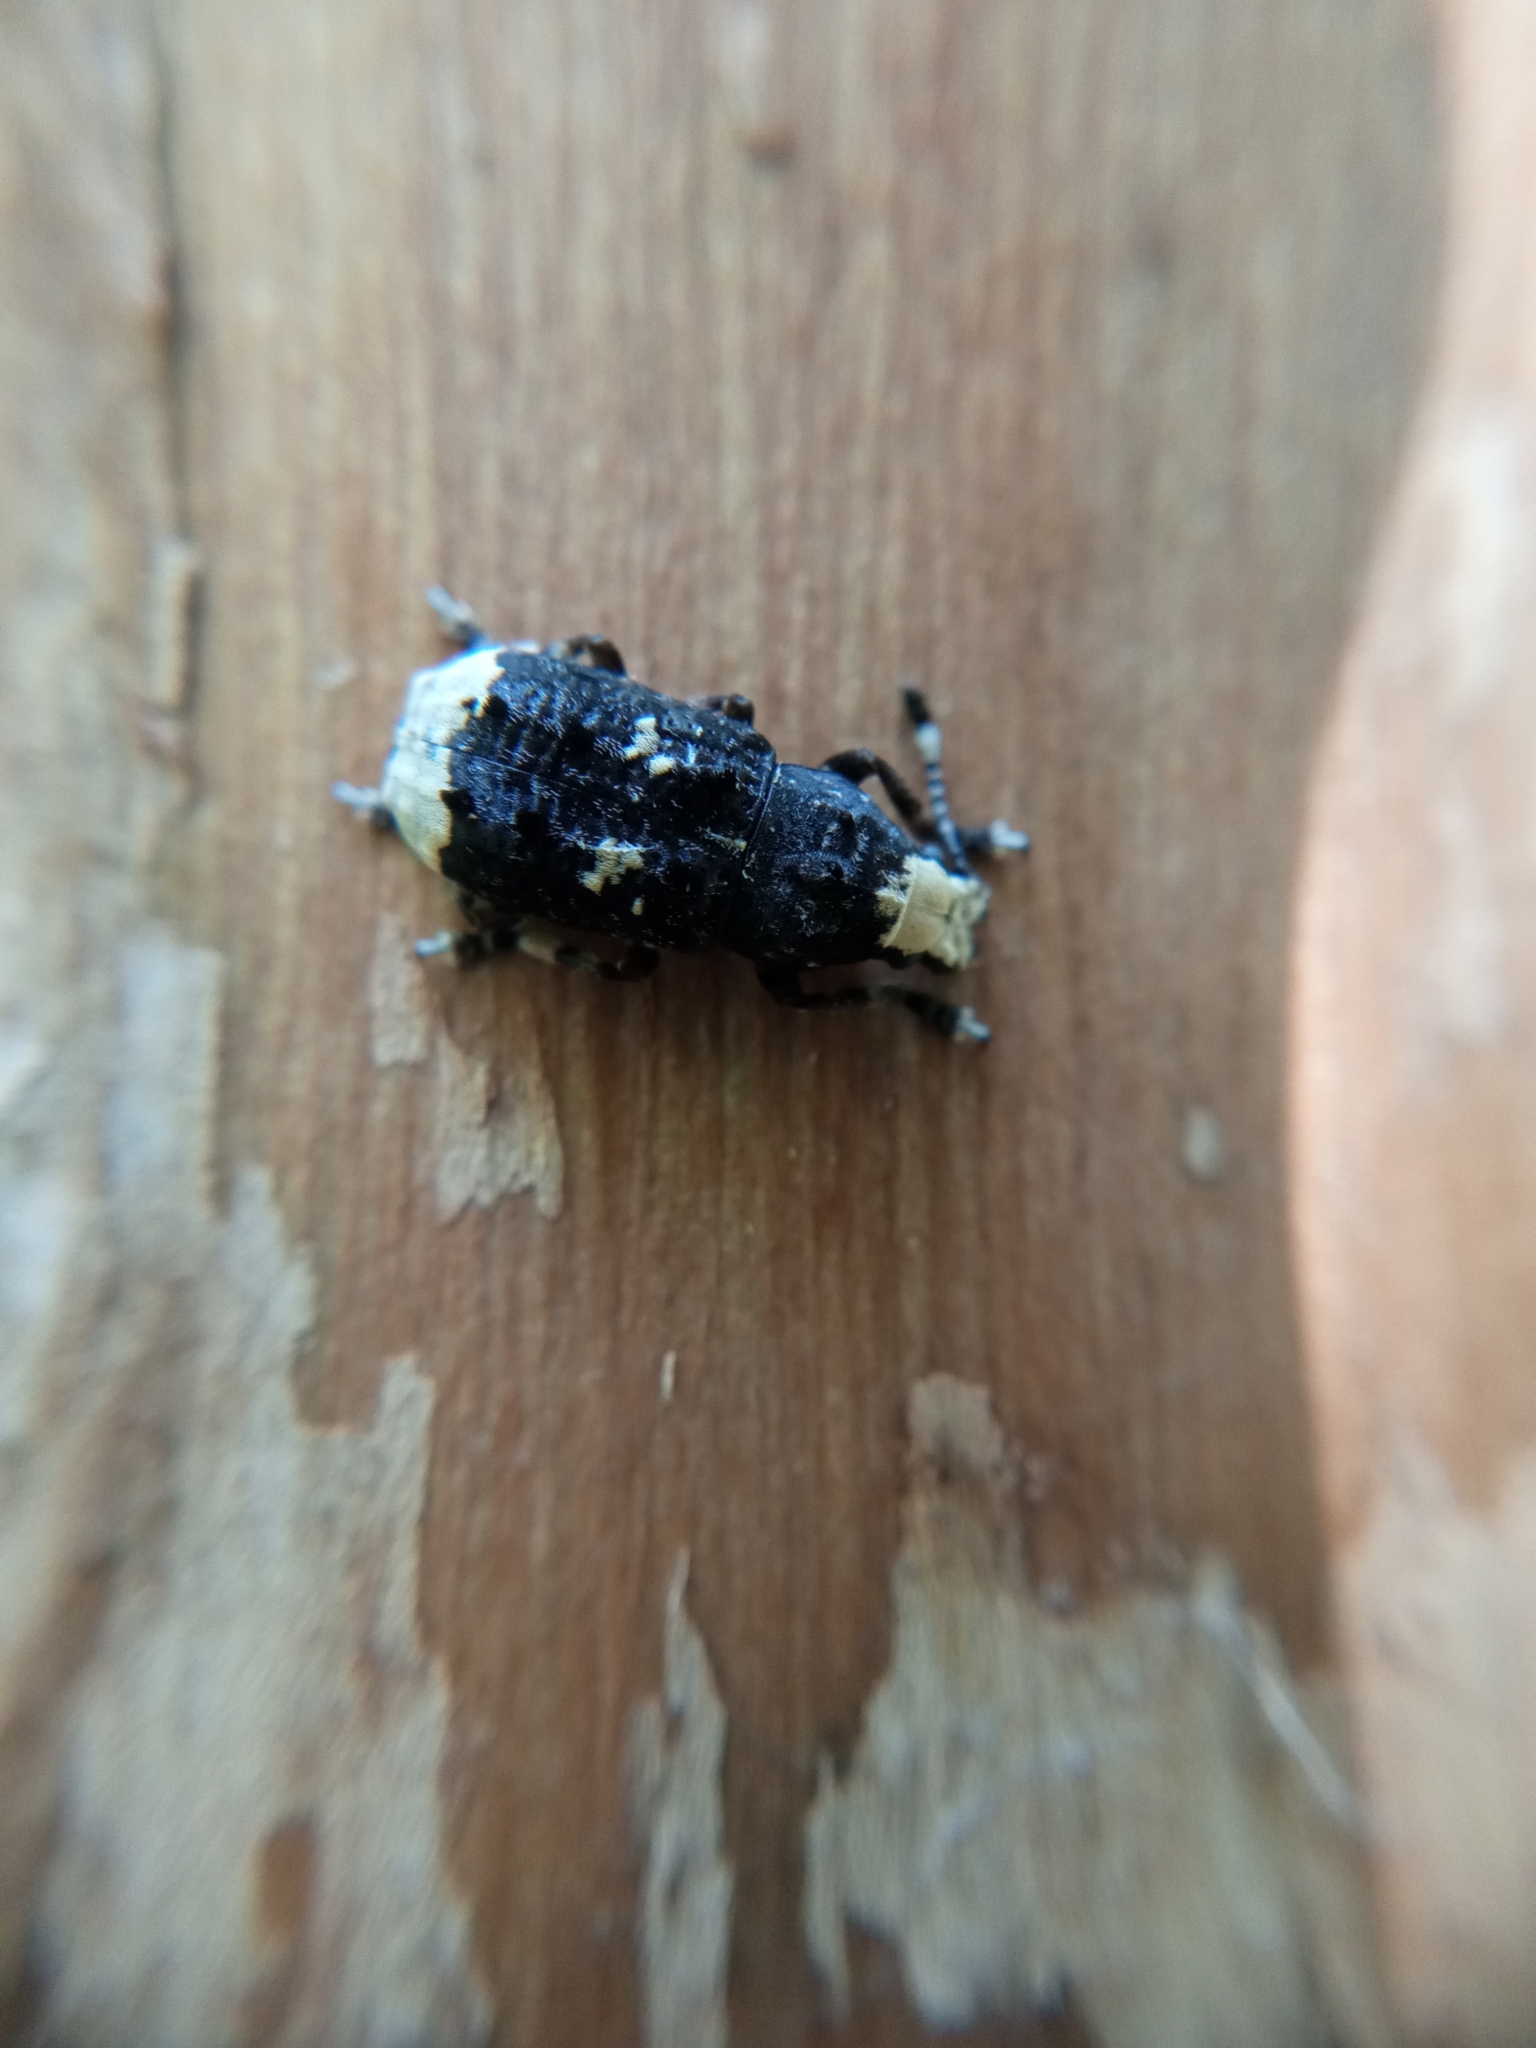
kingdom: Animalia
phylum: Arthropoda
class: Insecta
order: Coleoptera
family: Anthribidae
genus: Platystomos
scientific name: Platystomos albinus
